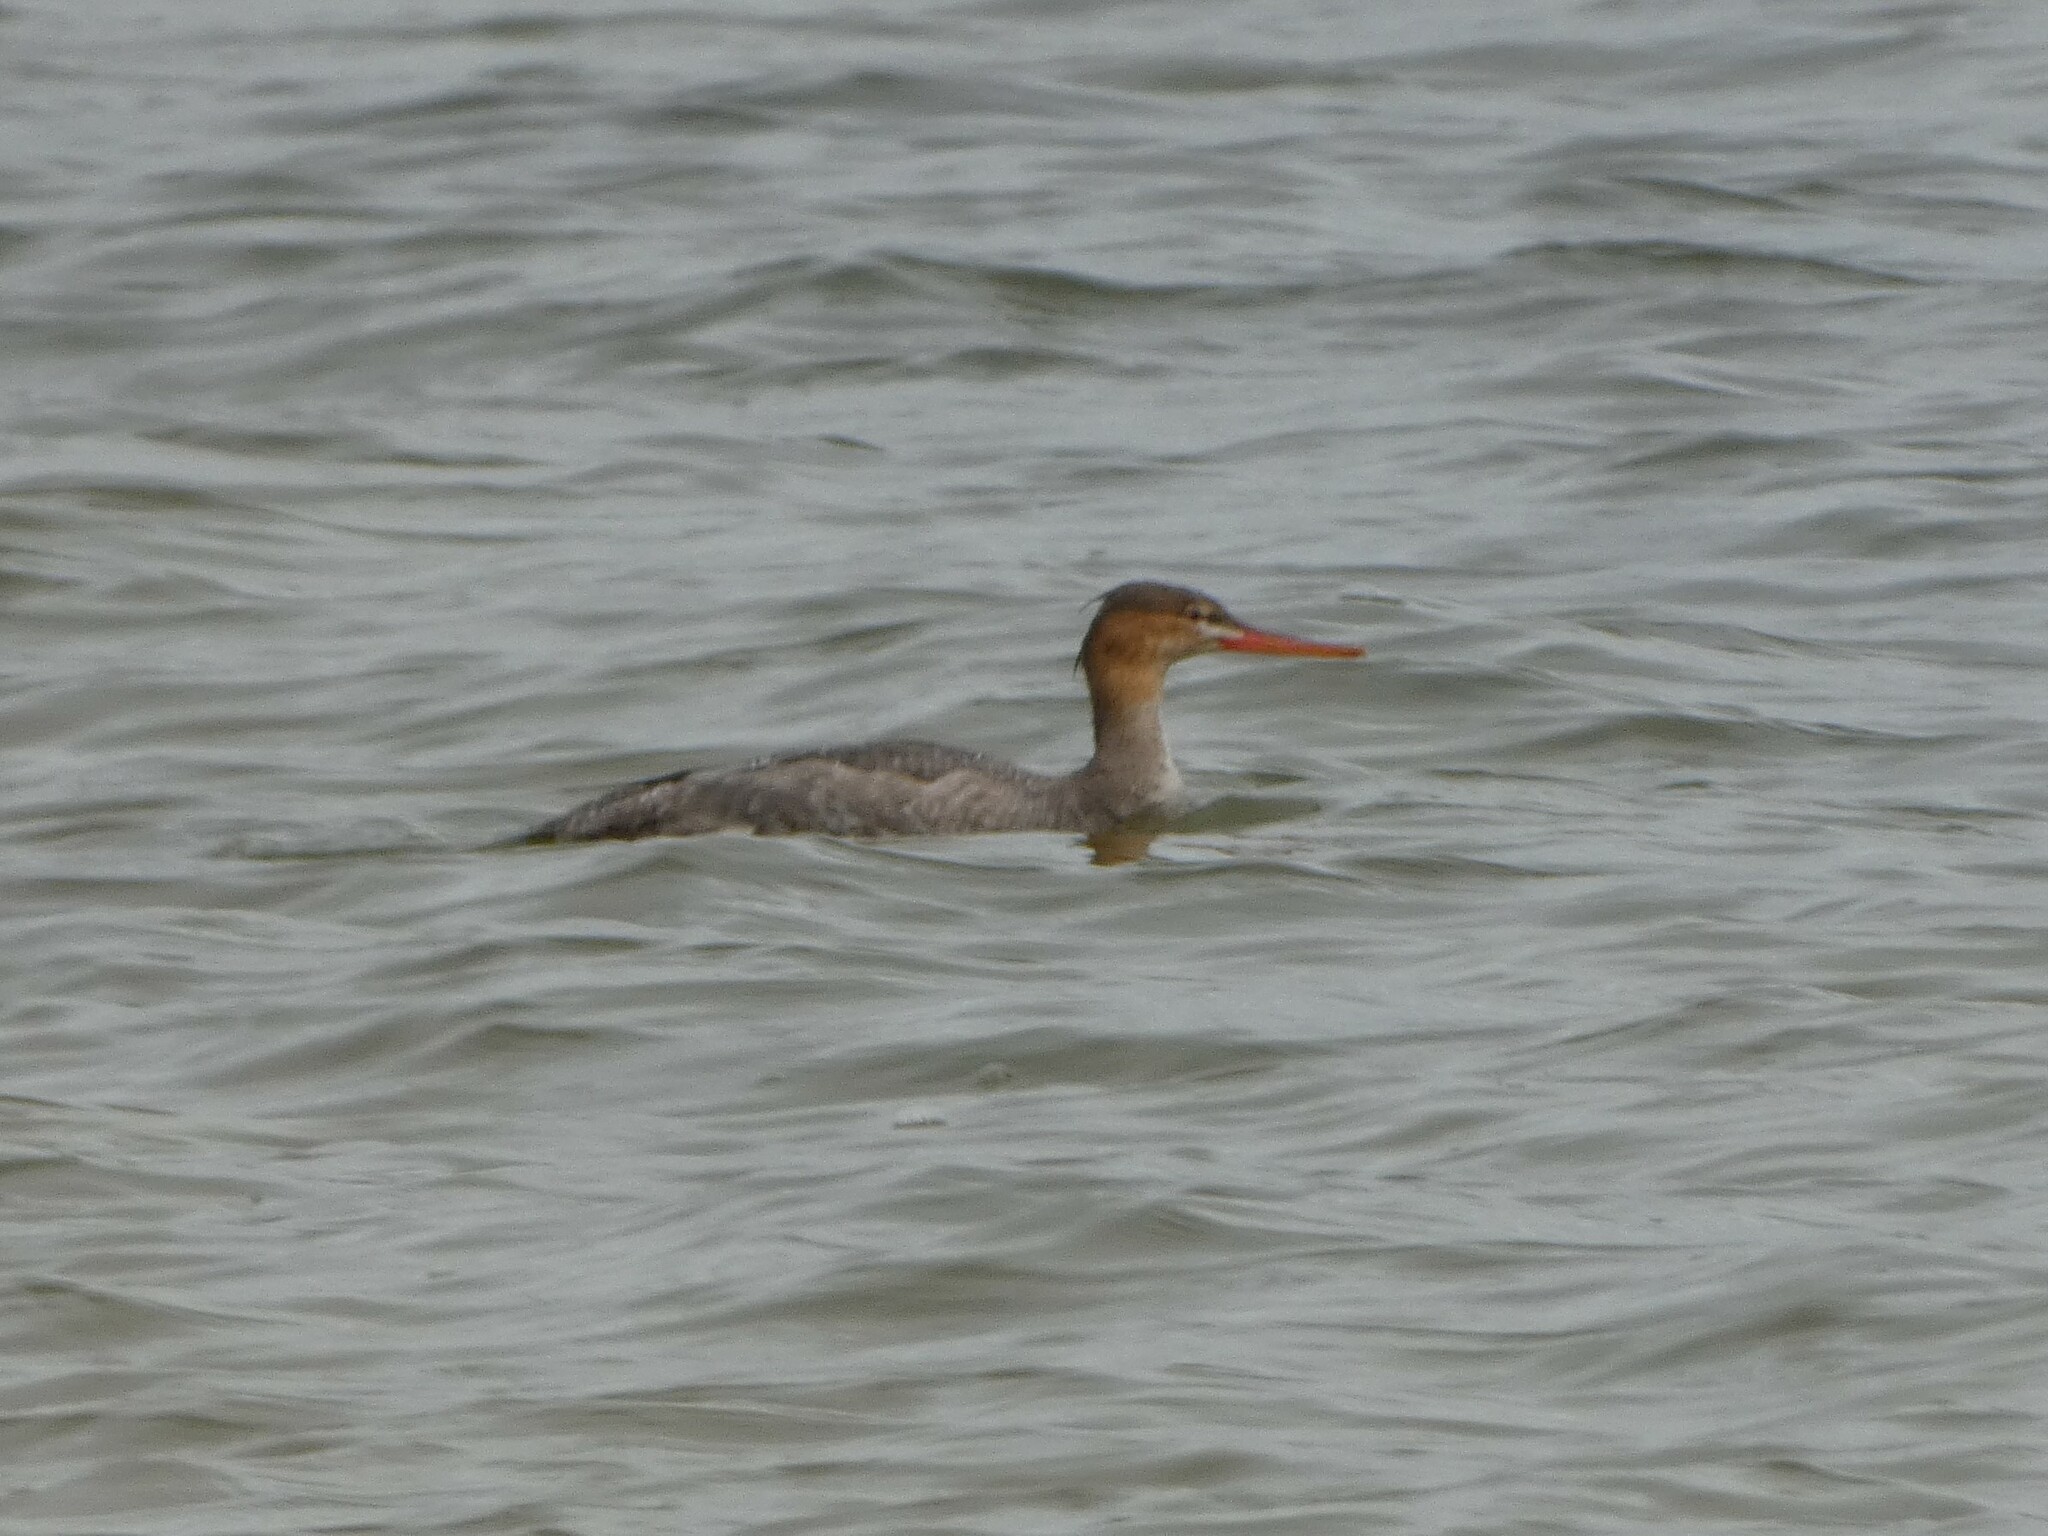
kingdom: Animalia
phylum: Chordata
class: Aves
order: Anseriformes
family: Anatidae
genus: Mergus
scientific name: Mergus serrator
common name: Red-breasted merganser
